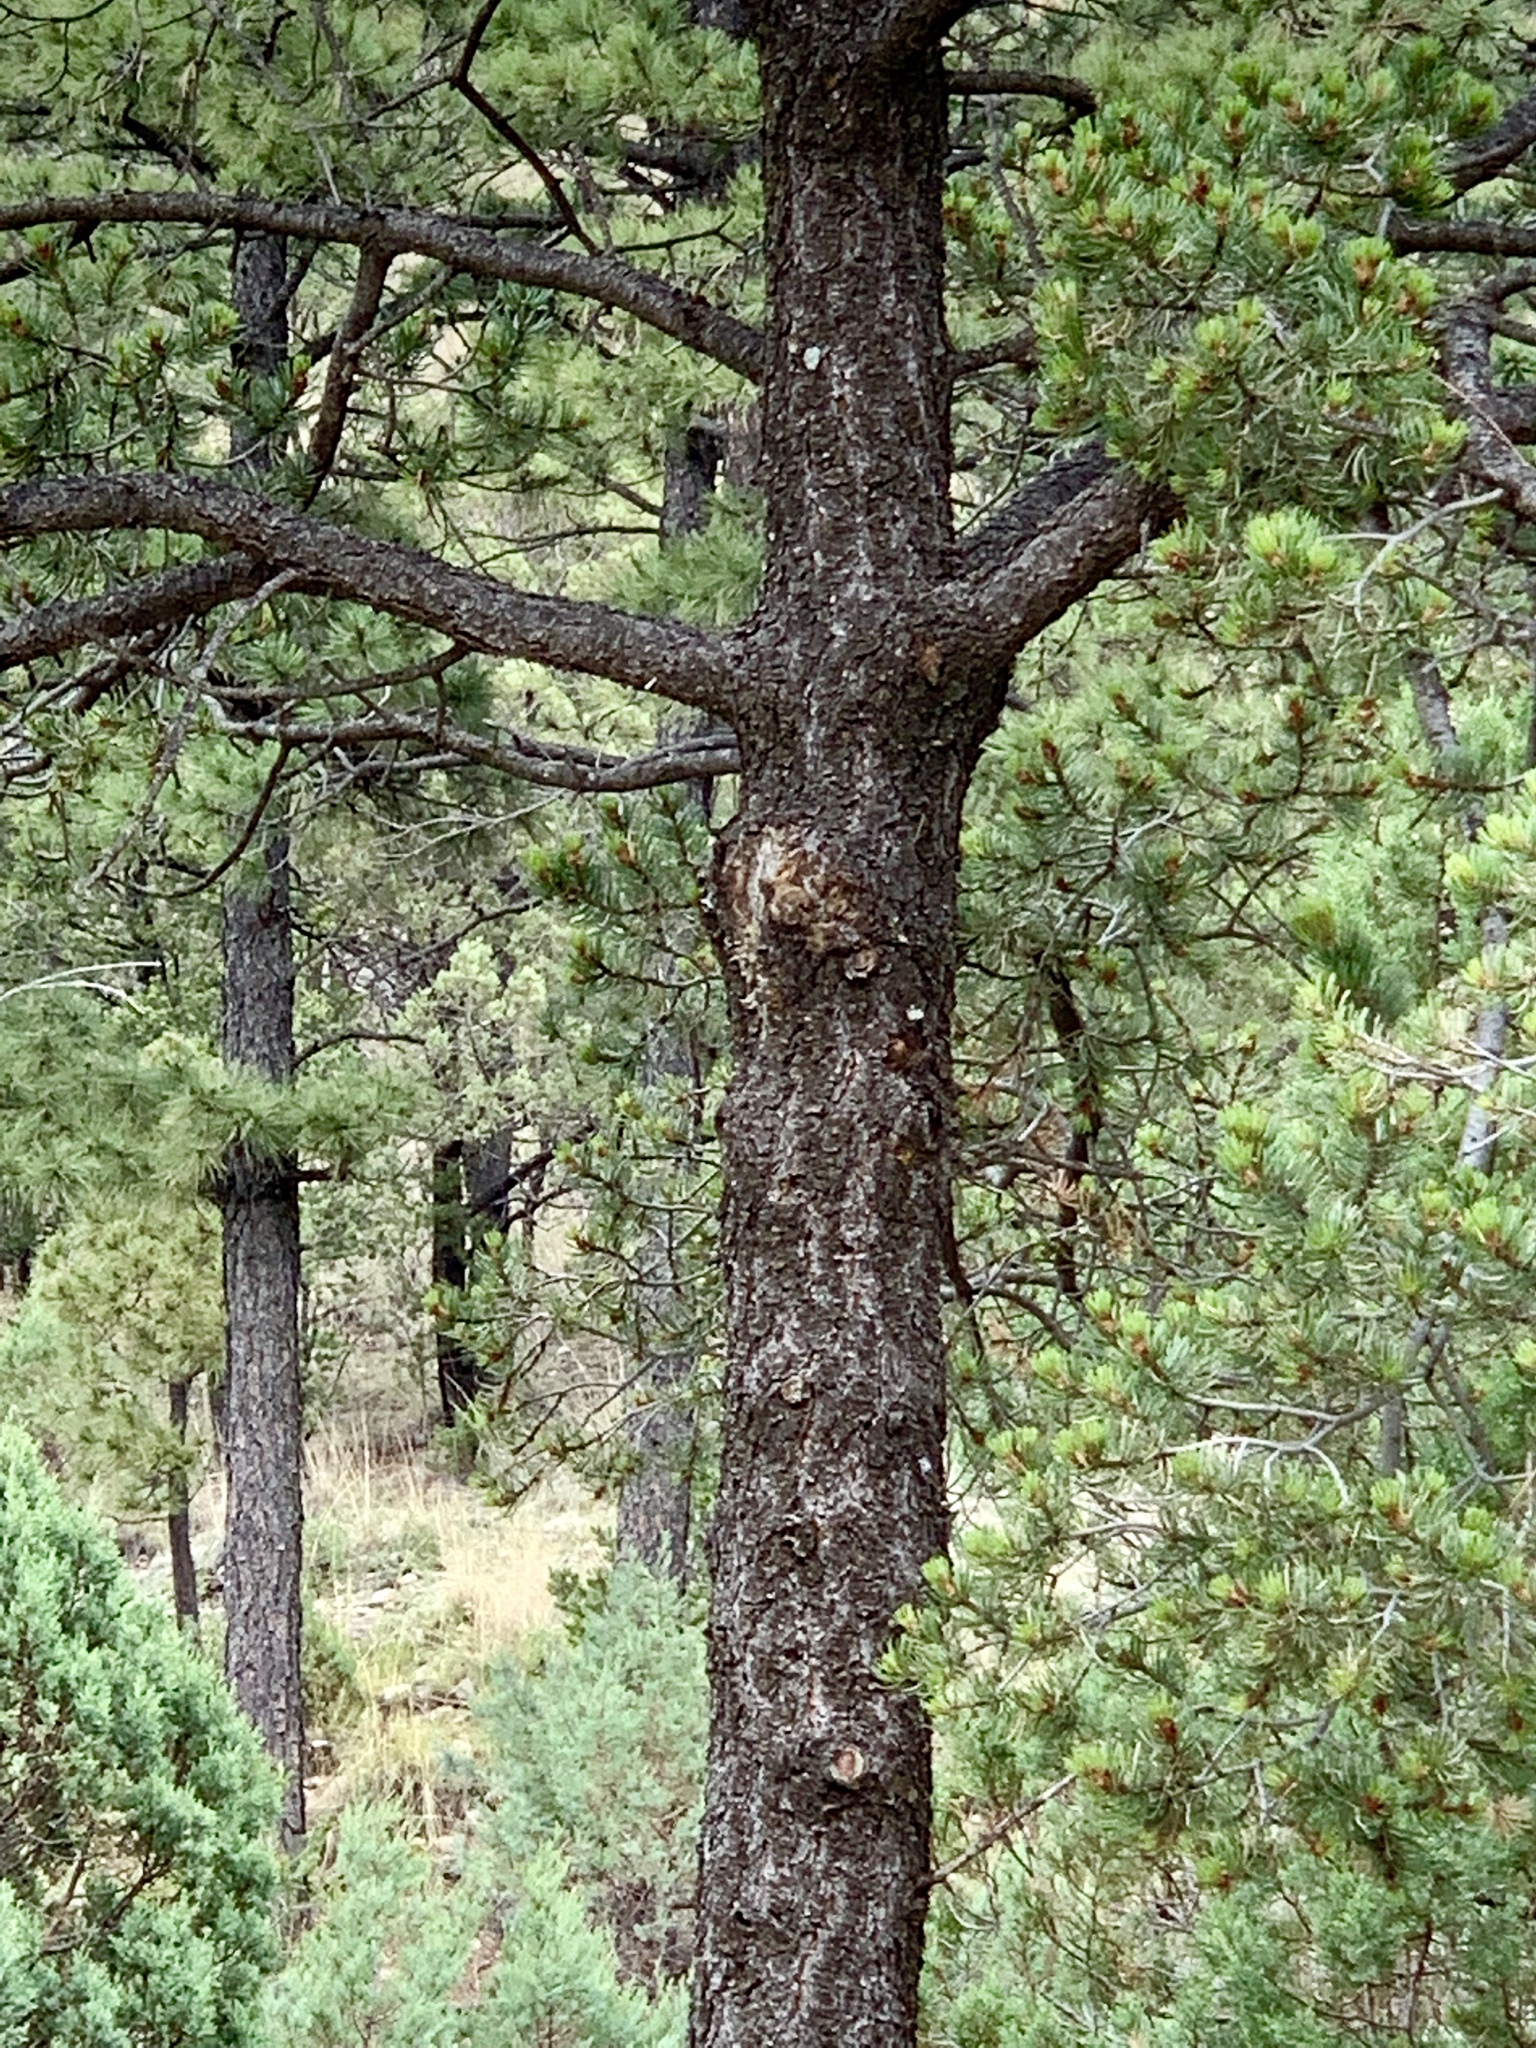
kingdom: Plantae
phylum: Tracheophyta
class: Pinopsida
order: Pinales
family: Pinaceae
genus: Pinus
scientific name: Pinus edulis
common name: Colorado pinyon
